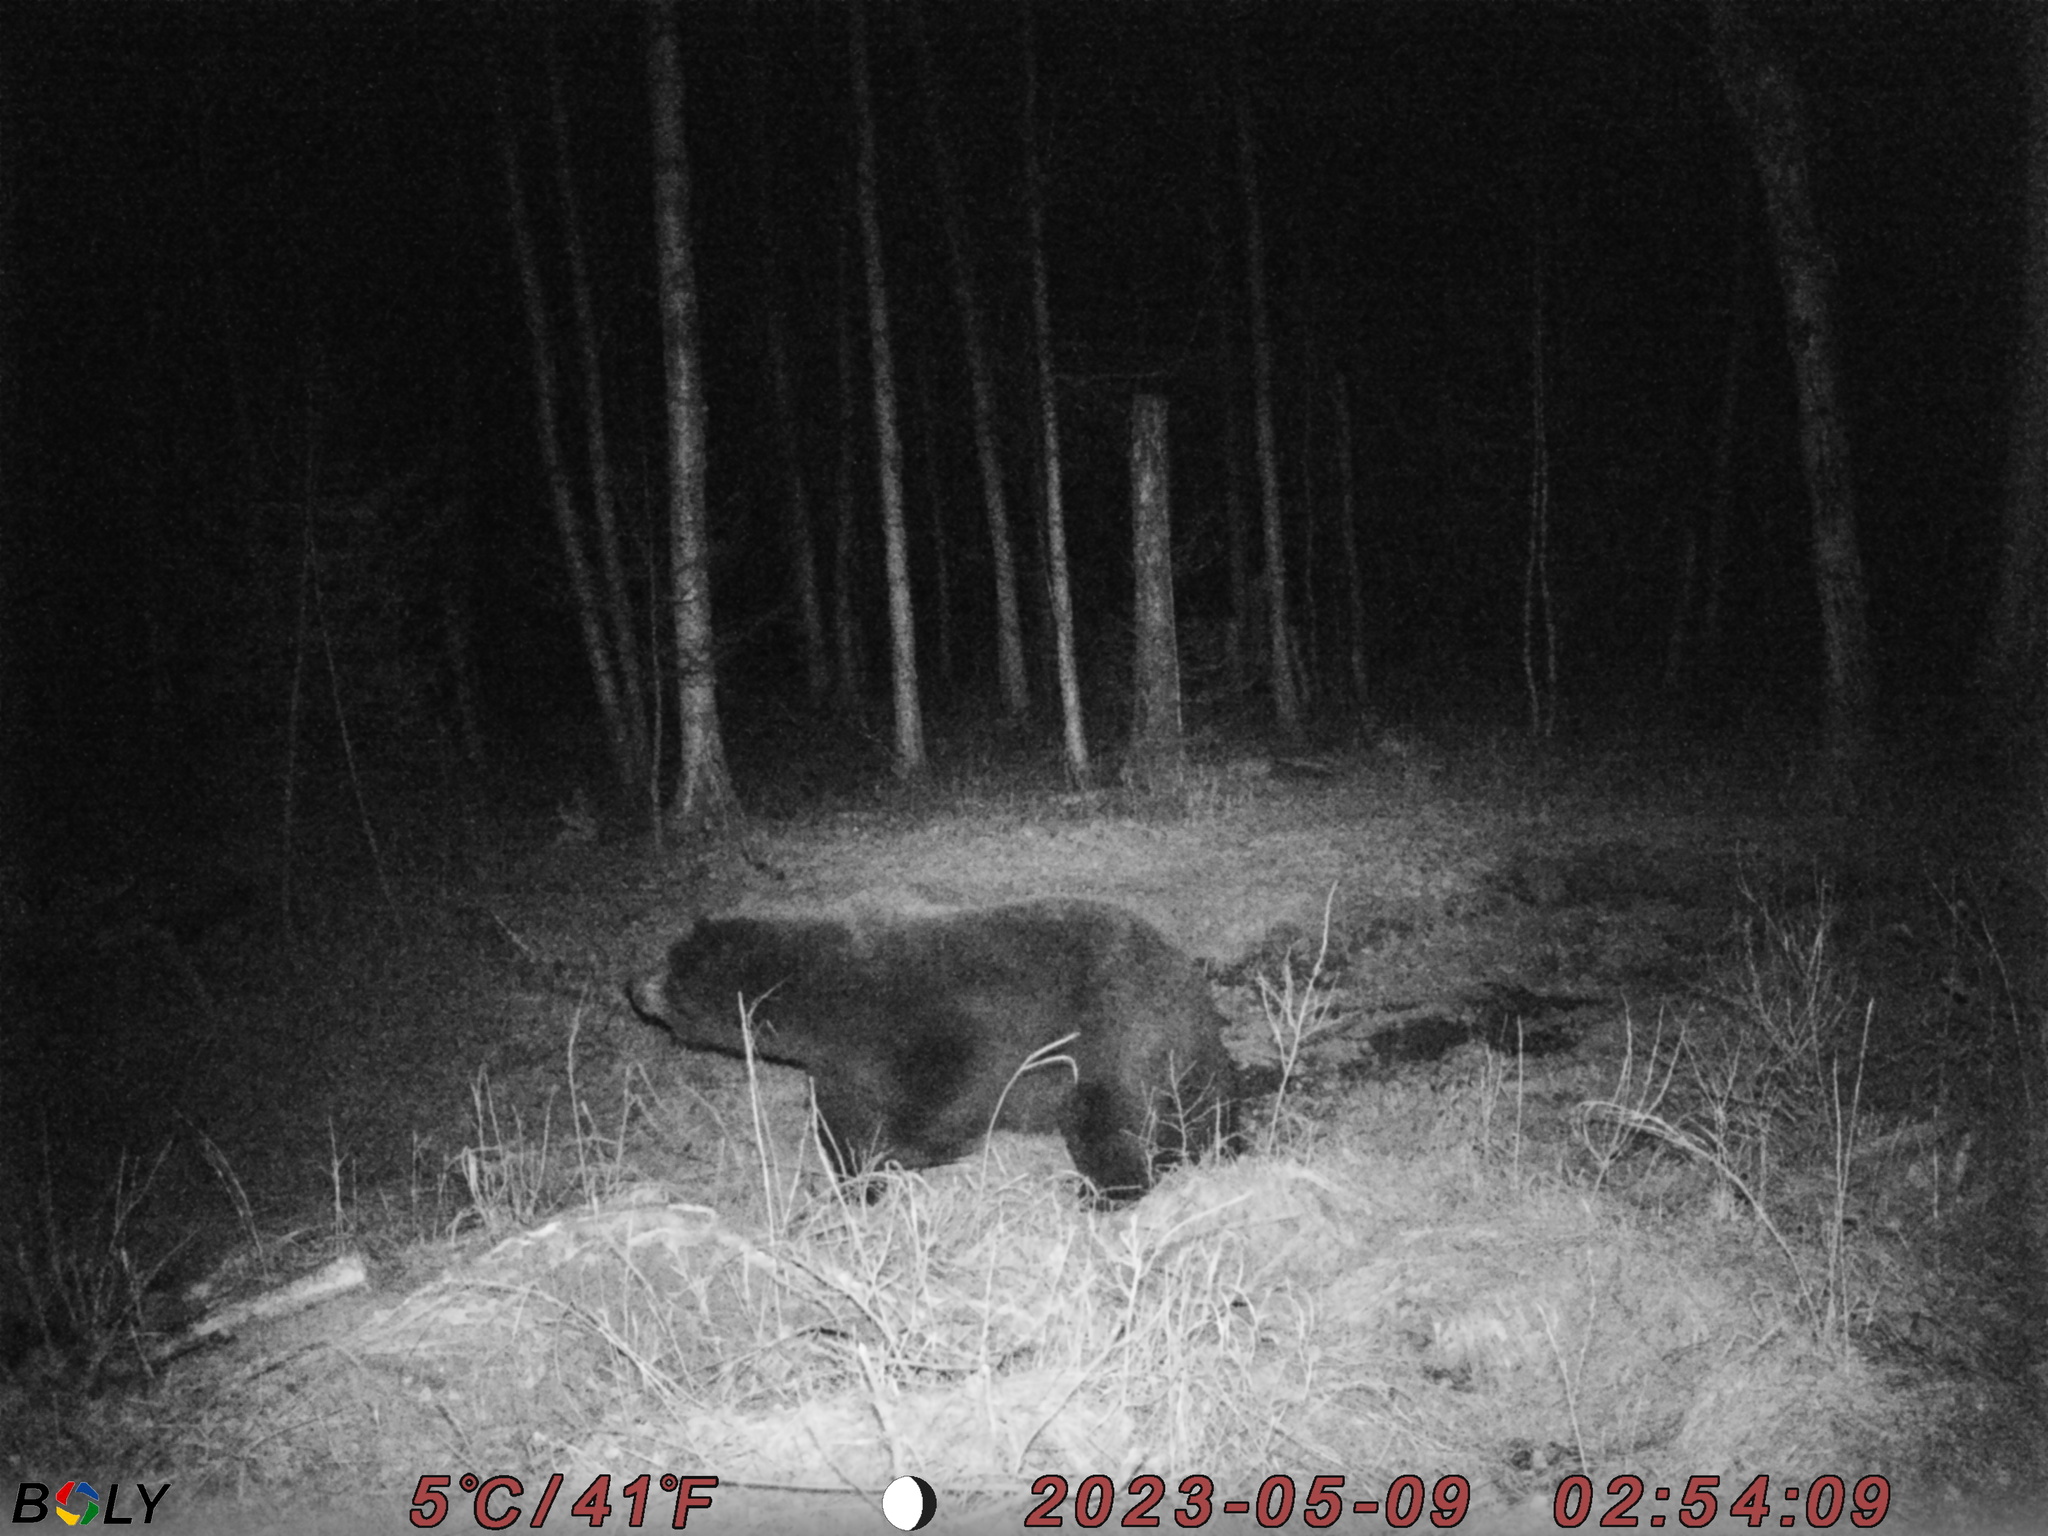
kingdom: Animalia
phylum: Chordata
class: Mammalia
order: Carnivora
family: Ursidae
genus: Ursus
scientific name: Ursus arctos
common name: Brown bear
